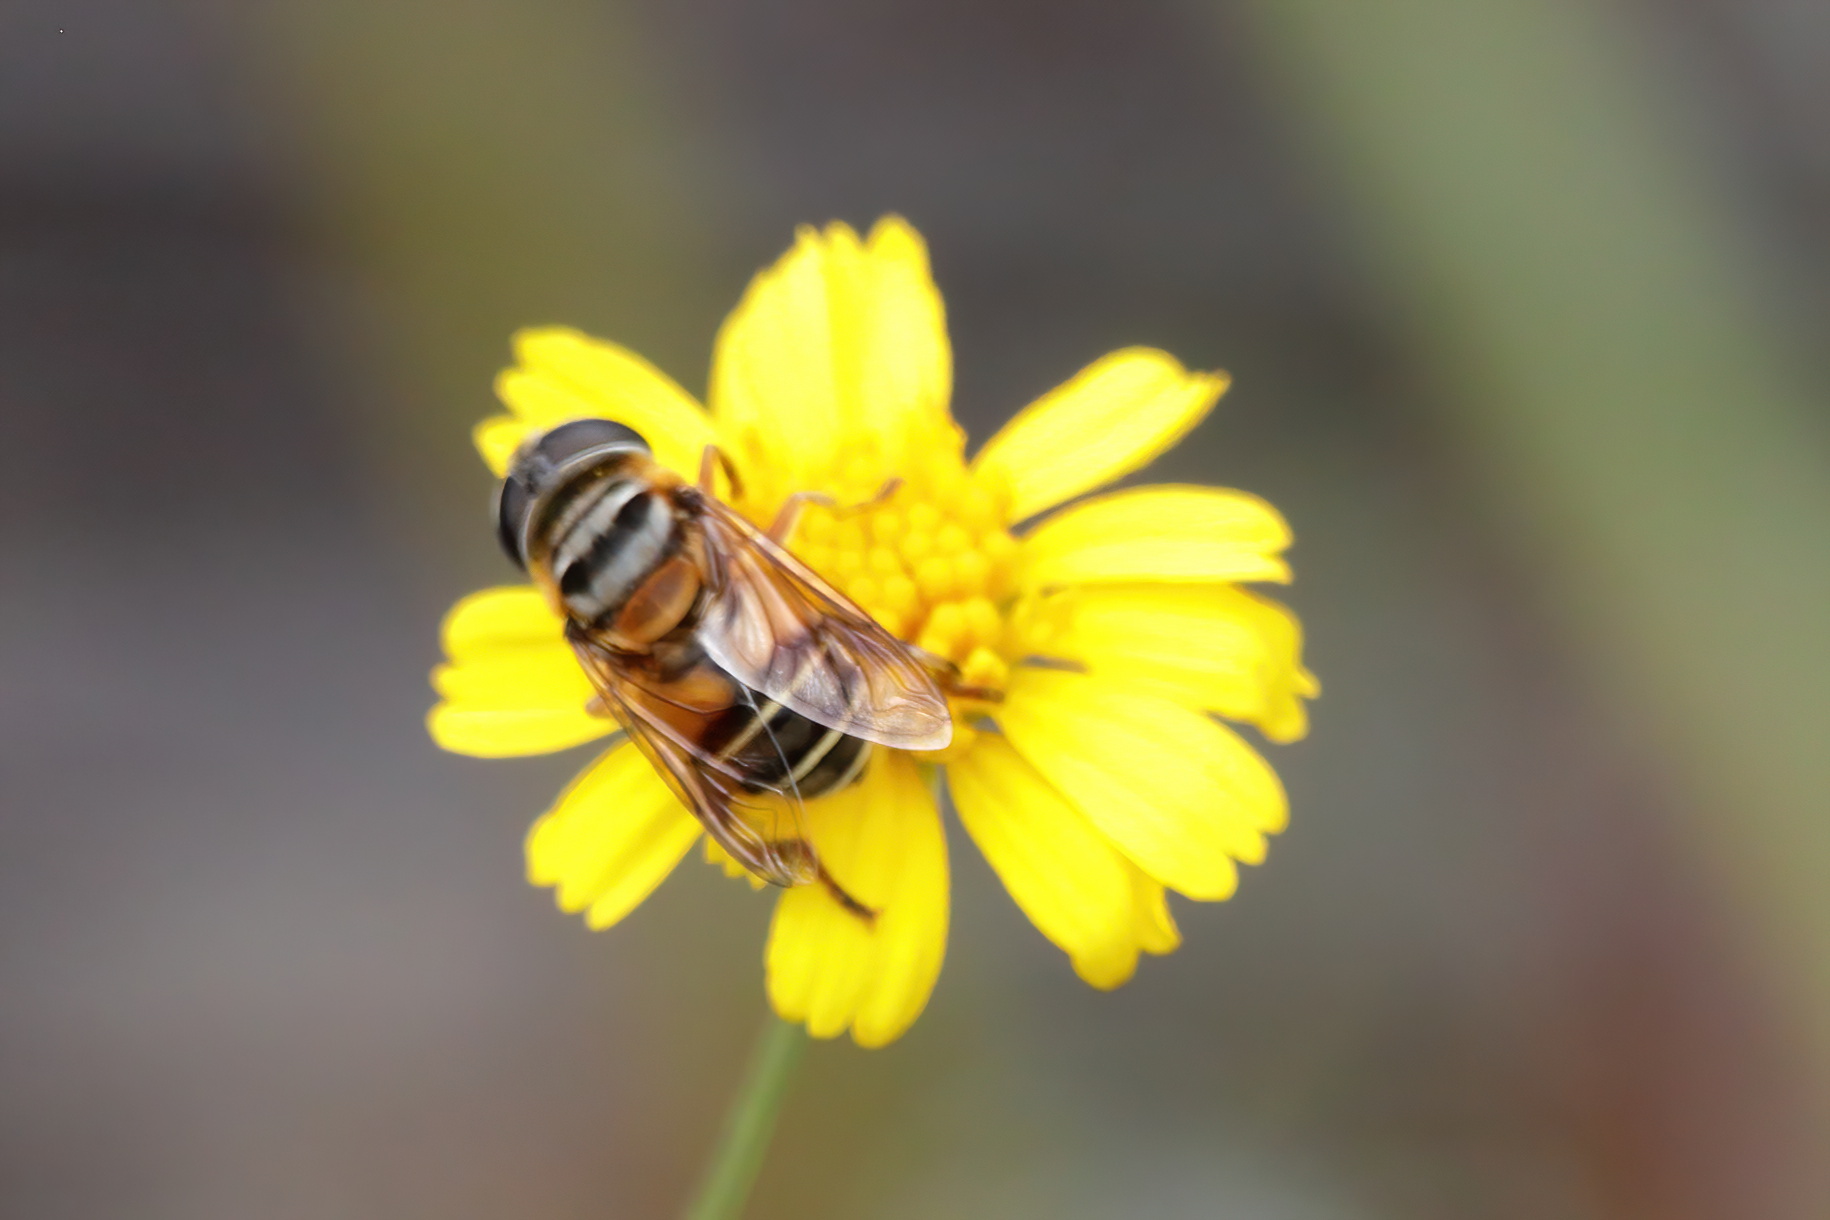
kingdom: Animalia
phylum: Arthropoda
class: Insecta
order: Diptera
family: Syrphidae
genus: Palpada
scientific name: Palpada vinetorum
